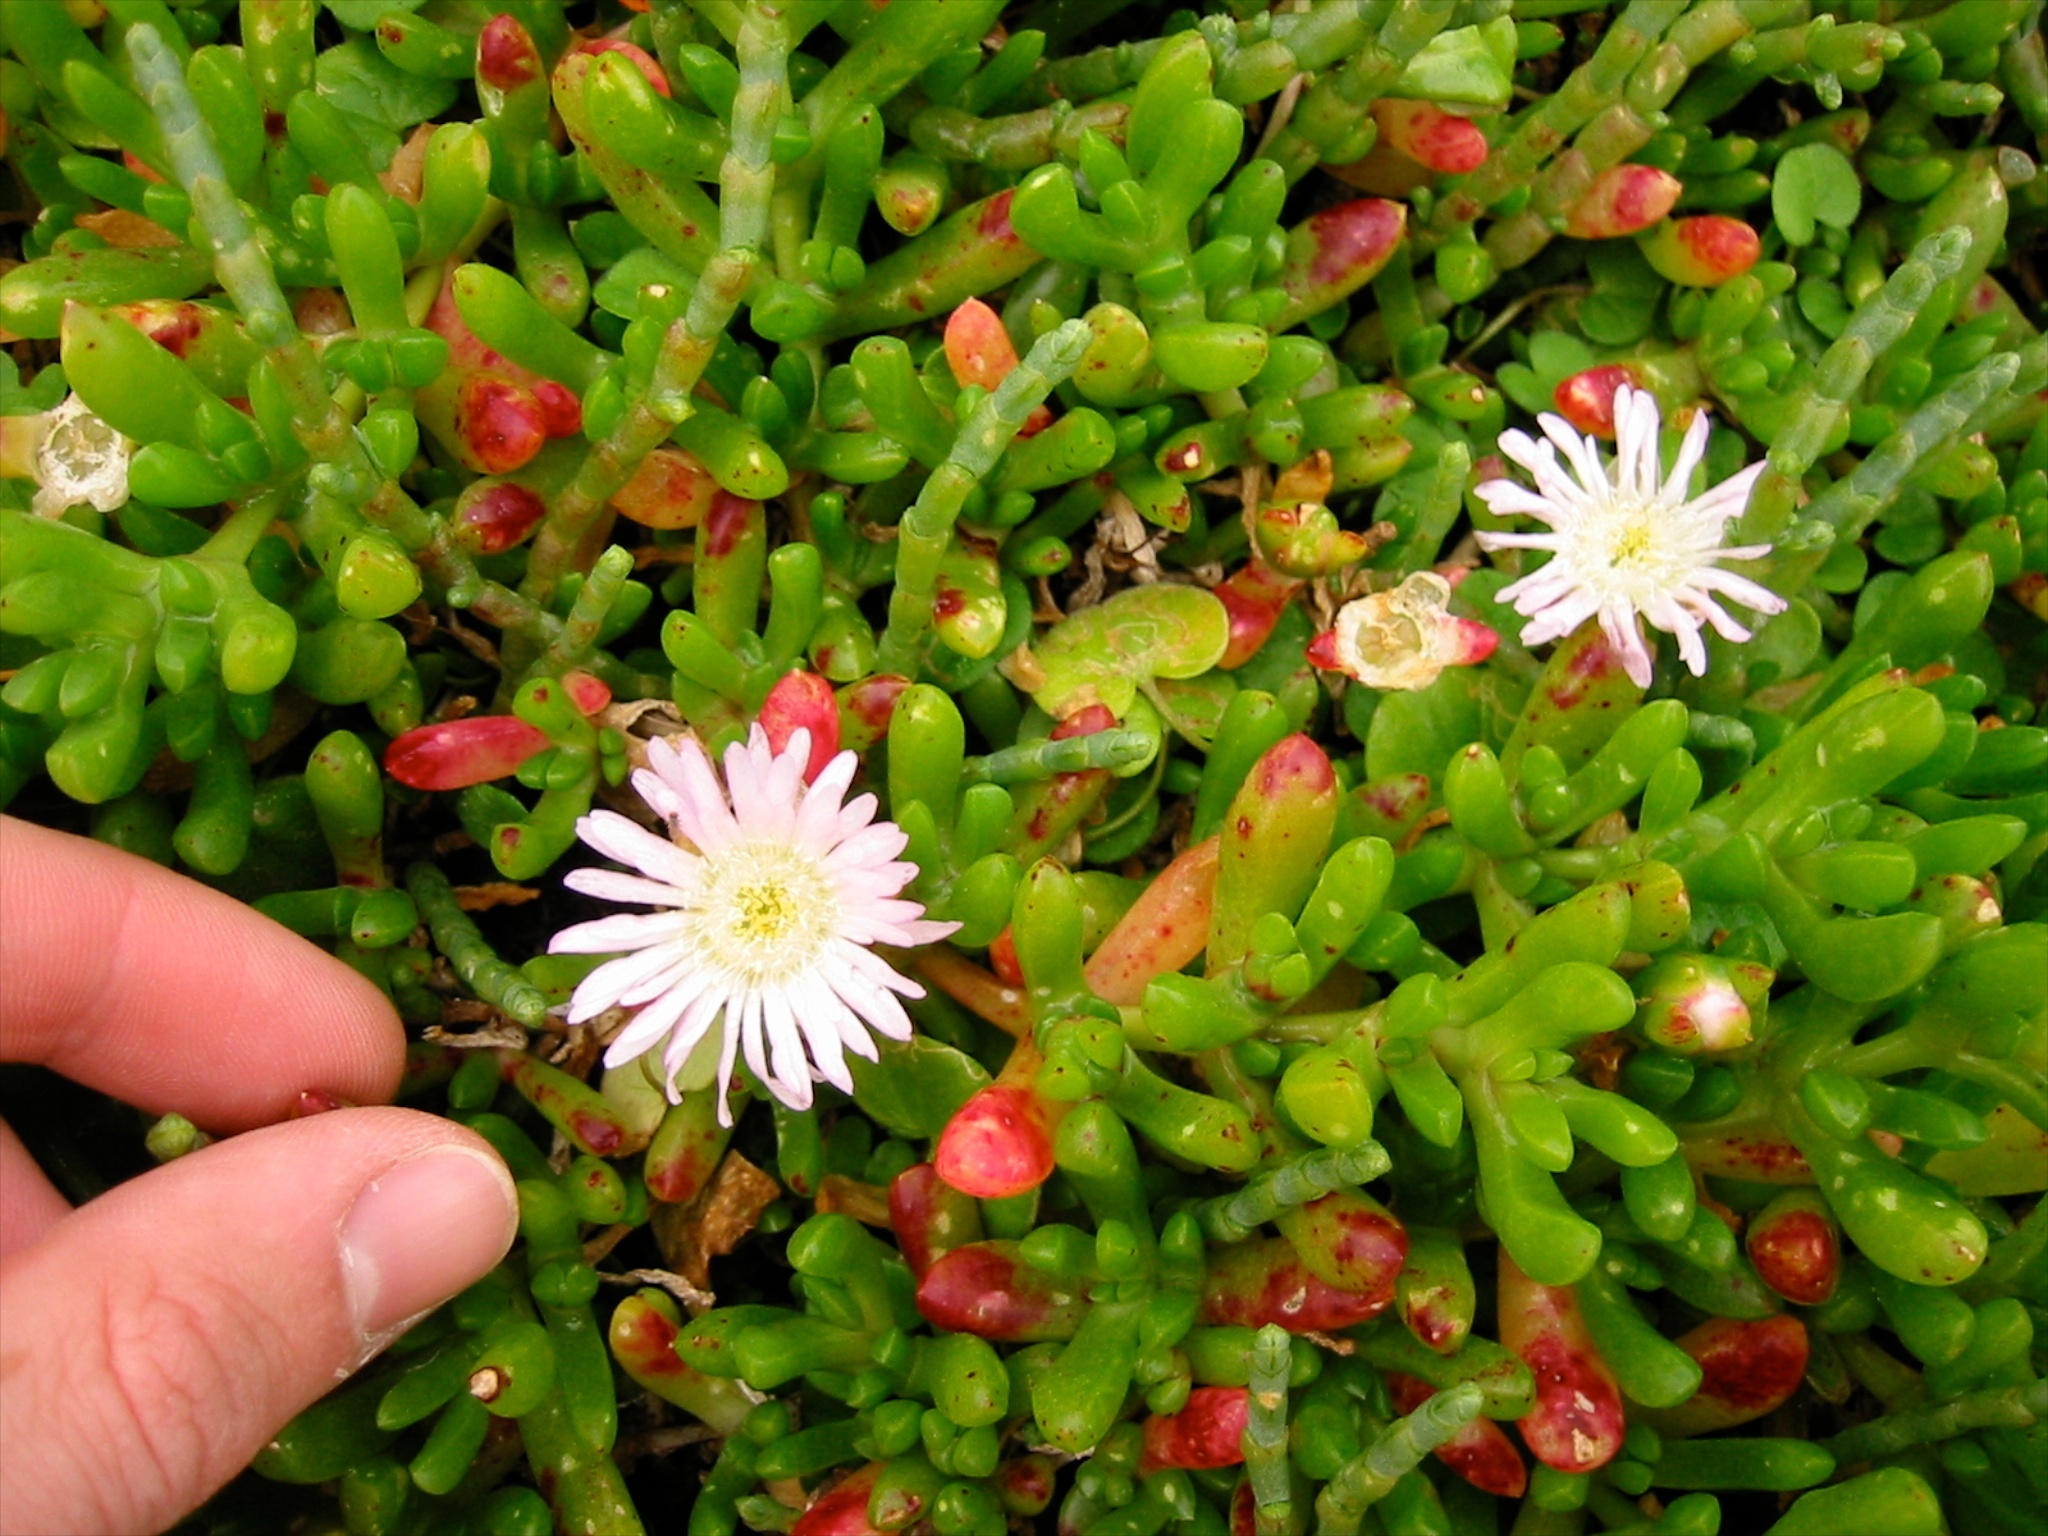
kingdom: Plantae
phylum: Tracheophyta
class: Magnoliopsida
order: Caryophyllales
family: Aizoaceae
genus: Disphyma
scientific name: Disphyma australe
